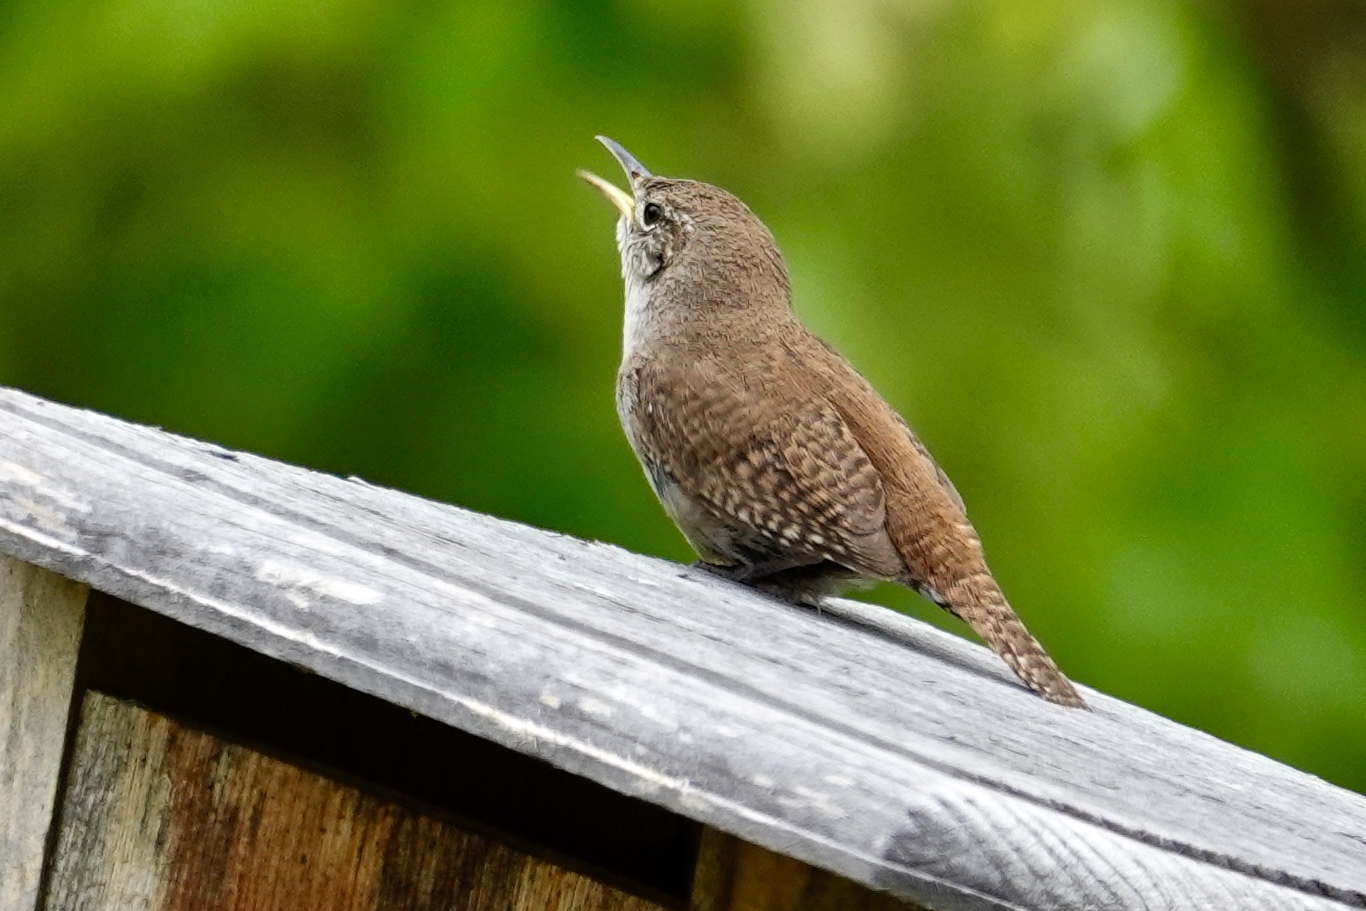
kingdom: Animalia
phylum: Chordata
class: Aves
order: Passeriformes
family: Troglodytidae
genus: Troglodytes
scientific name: Troglodytes aedon
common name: House wren
